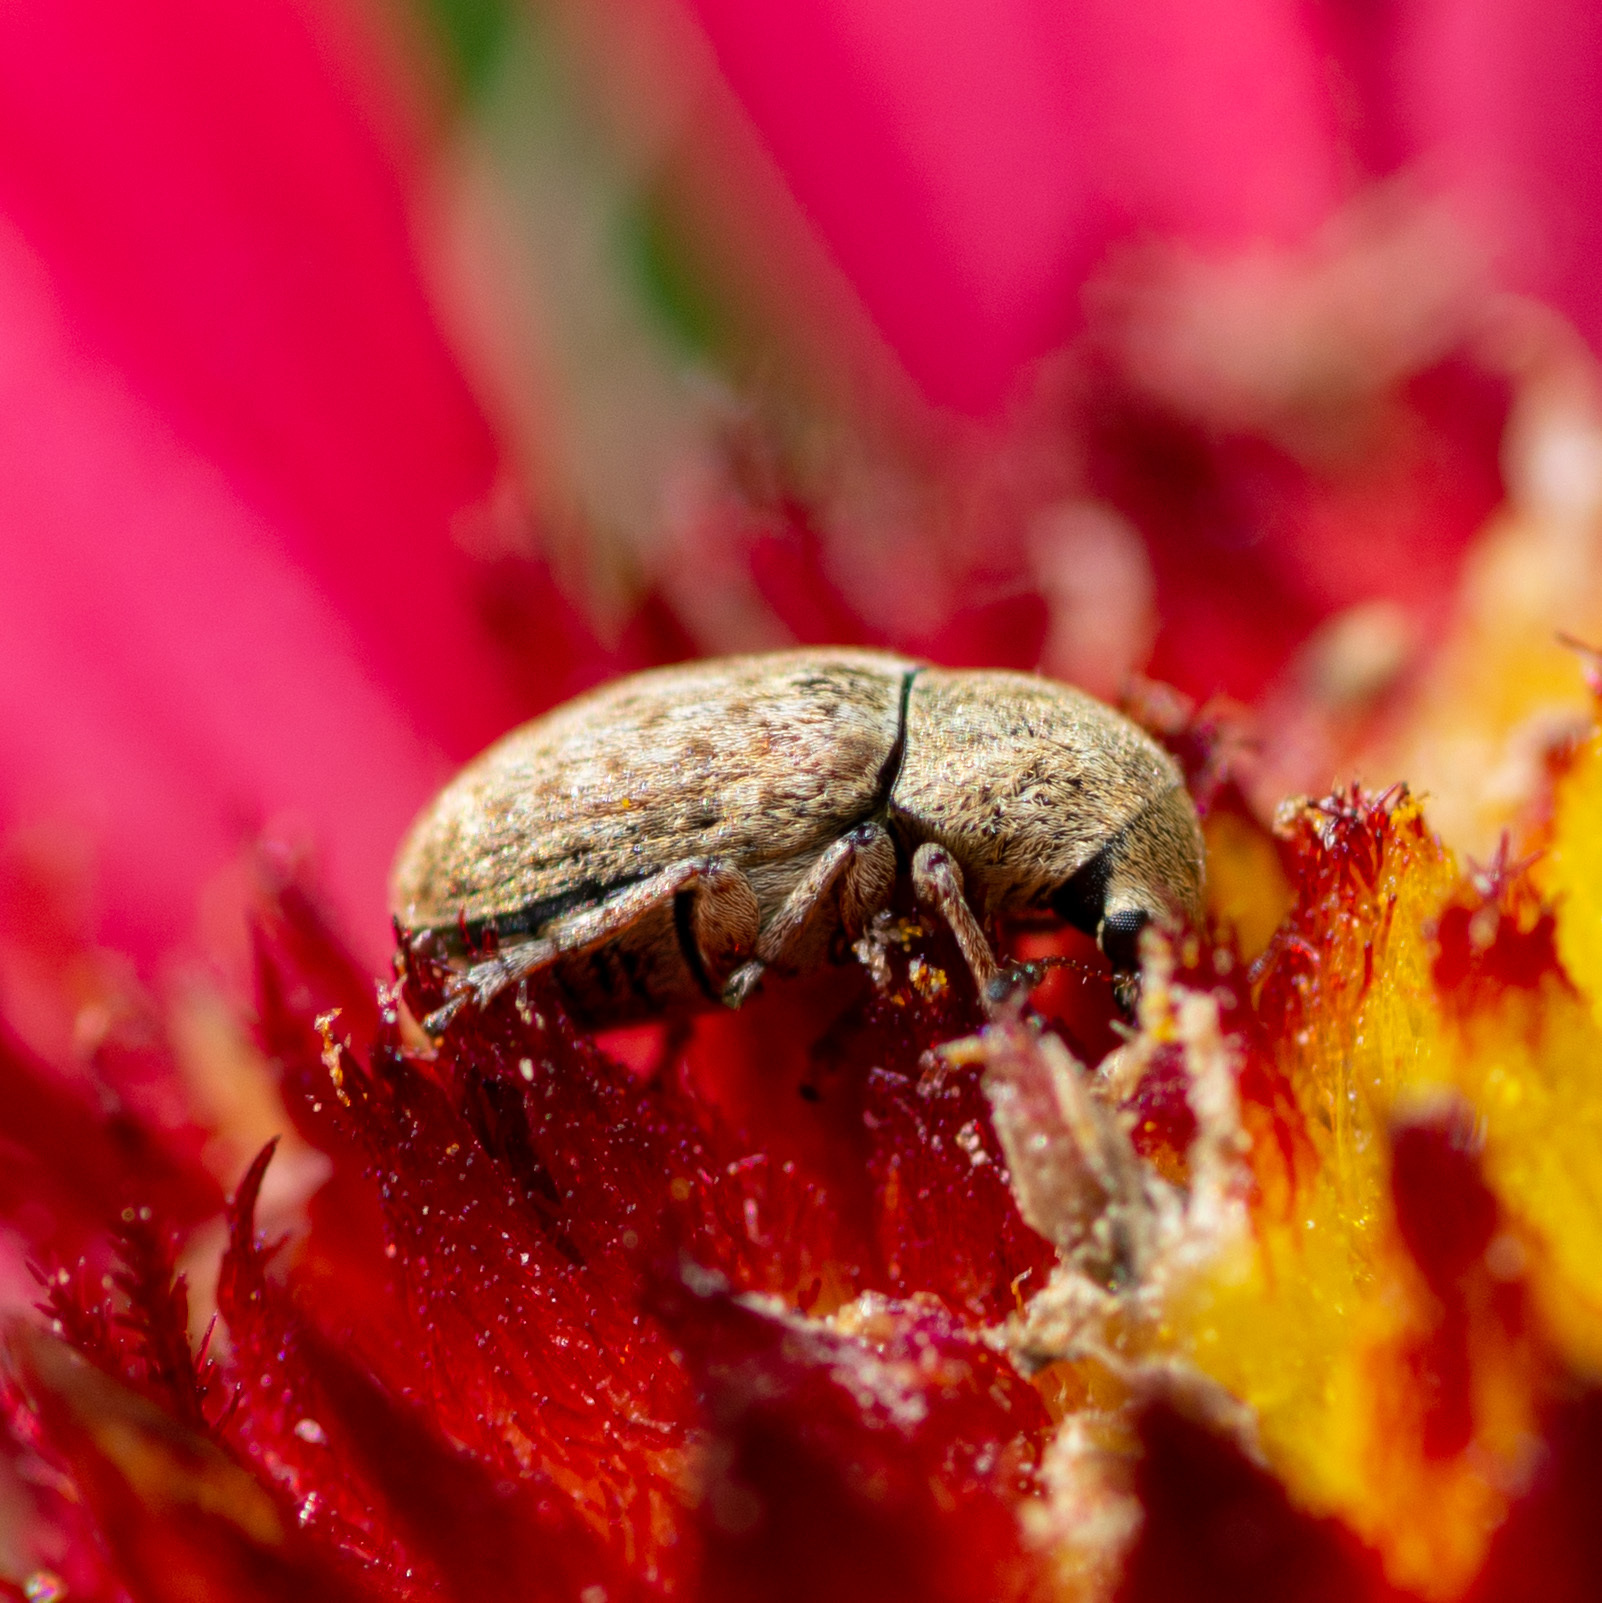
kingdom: Animalia
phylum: Arthropoda
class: Insecta
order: Coleoptera
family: Anthribidae
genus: Trigonorhinus
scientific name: Trigonorhinus limbatus
